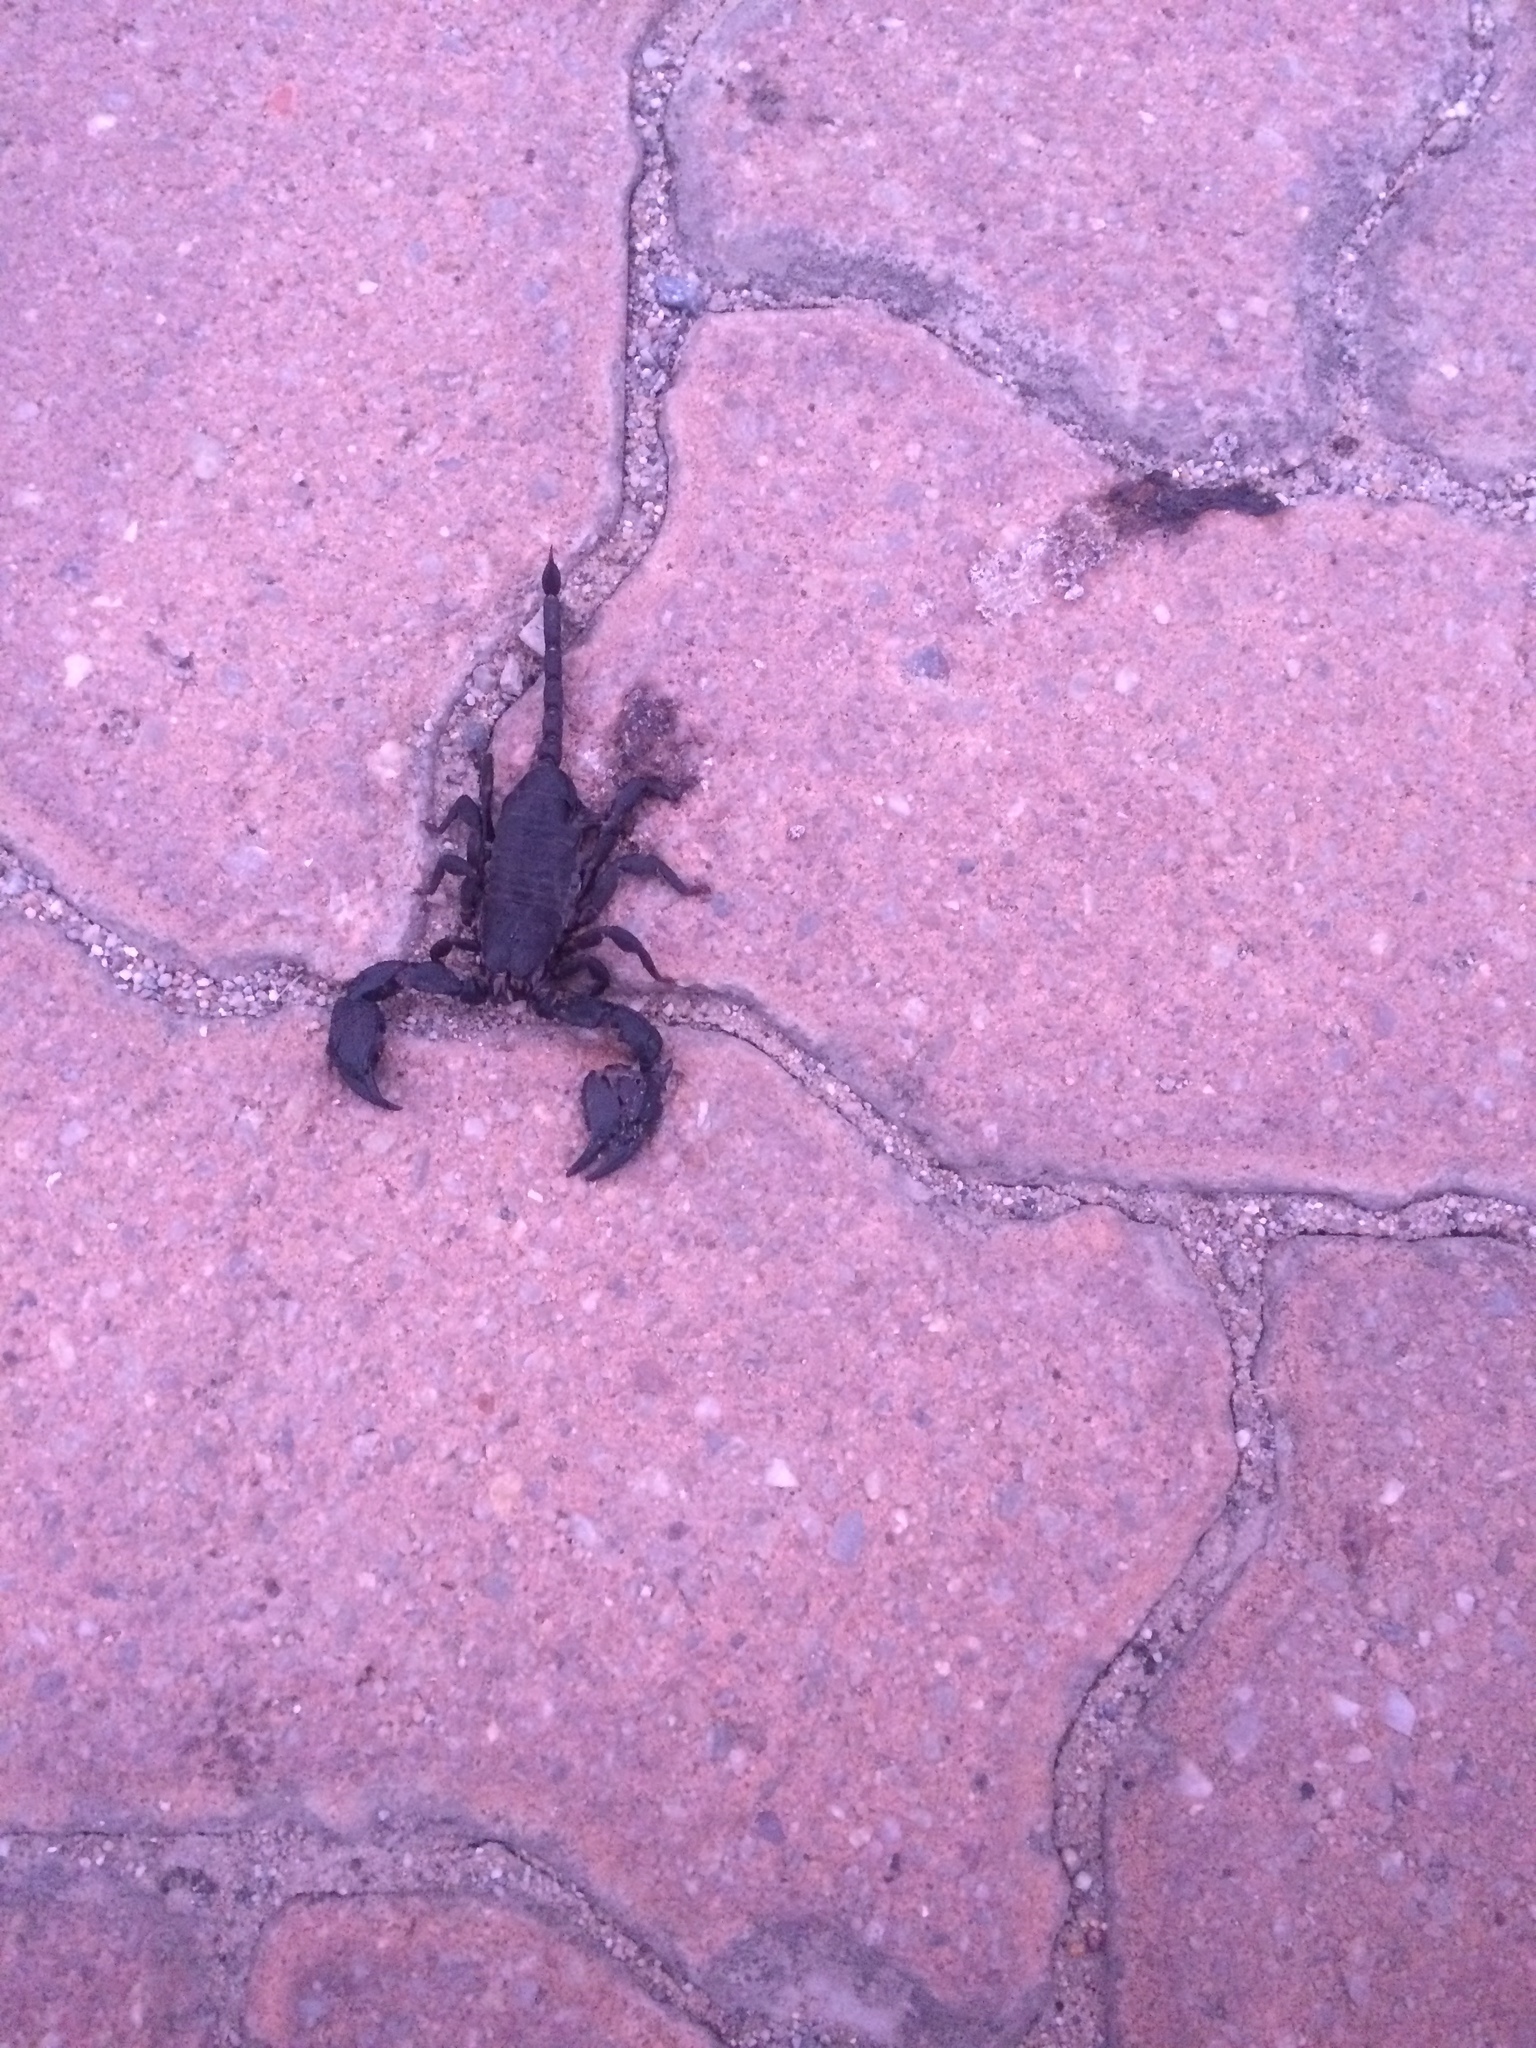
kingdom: Animalia
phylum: Arthropoda
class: Arachnida
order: Scorpiones
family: Hormuridae
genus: Opisthacanthus
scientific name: Opisthacanthus capensis
